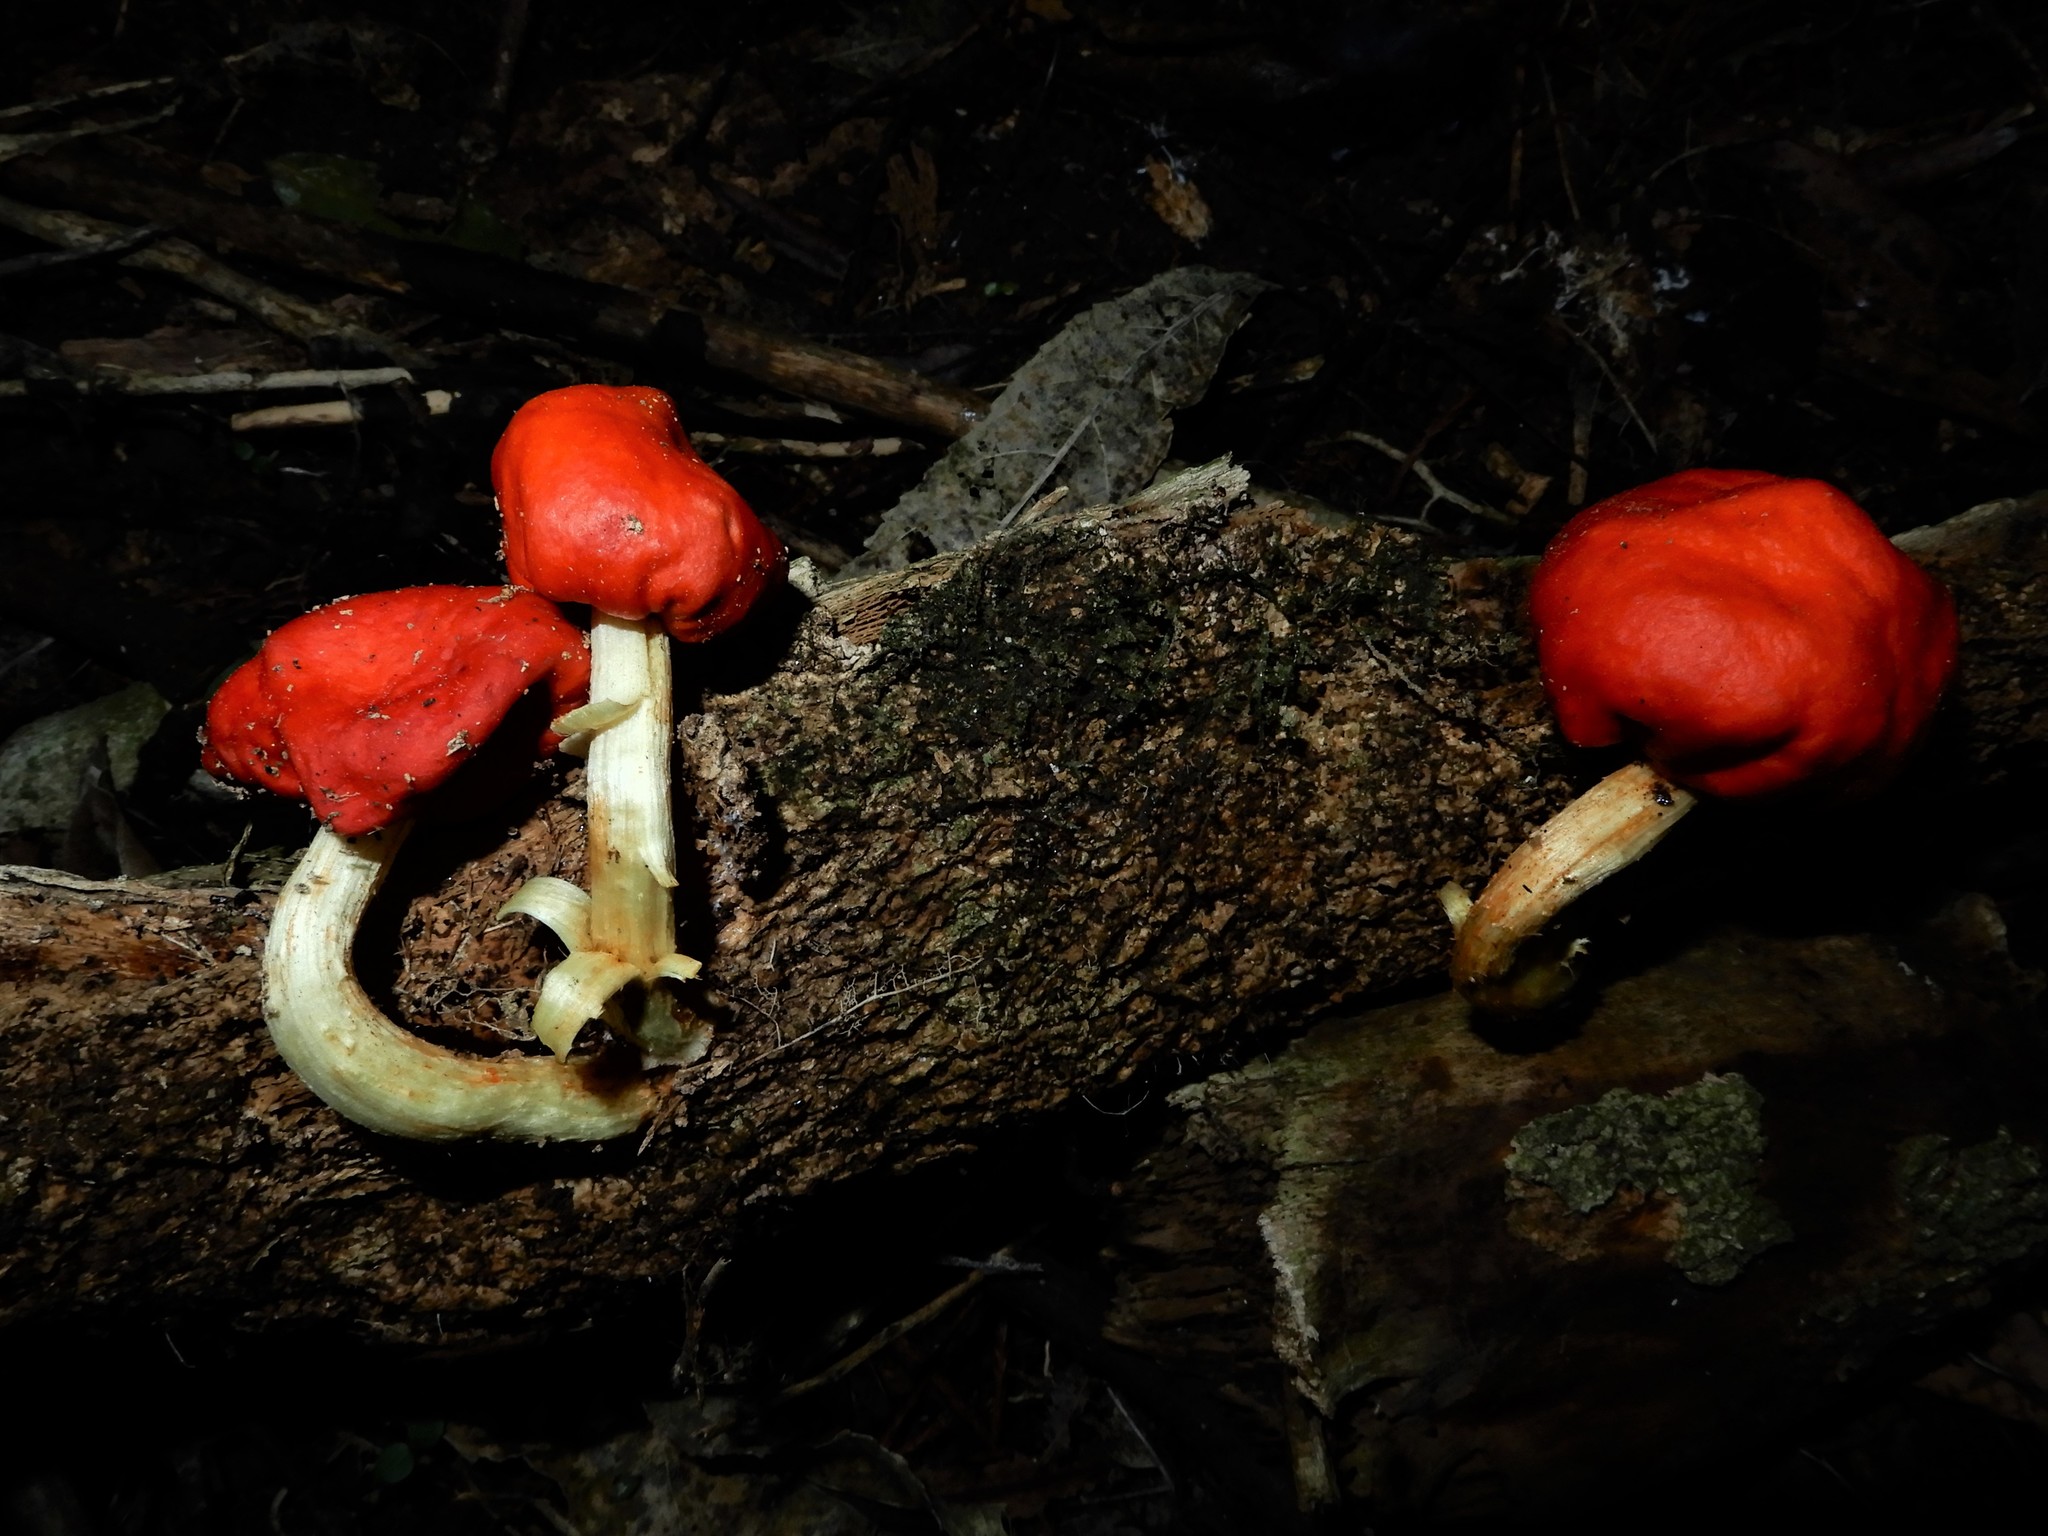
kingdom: Fungi
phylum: Basidiomycota
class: Agaricomycetes
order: Agaricales
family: Strophariaceae
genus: Leratiomyces
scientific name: Leratiomyces erythrocephalus
